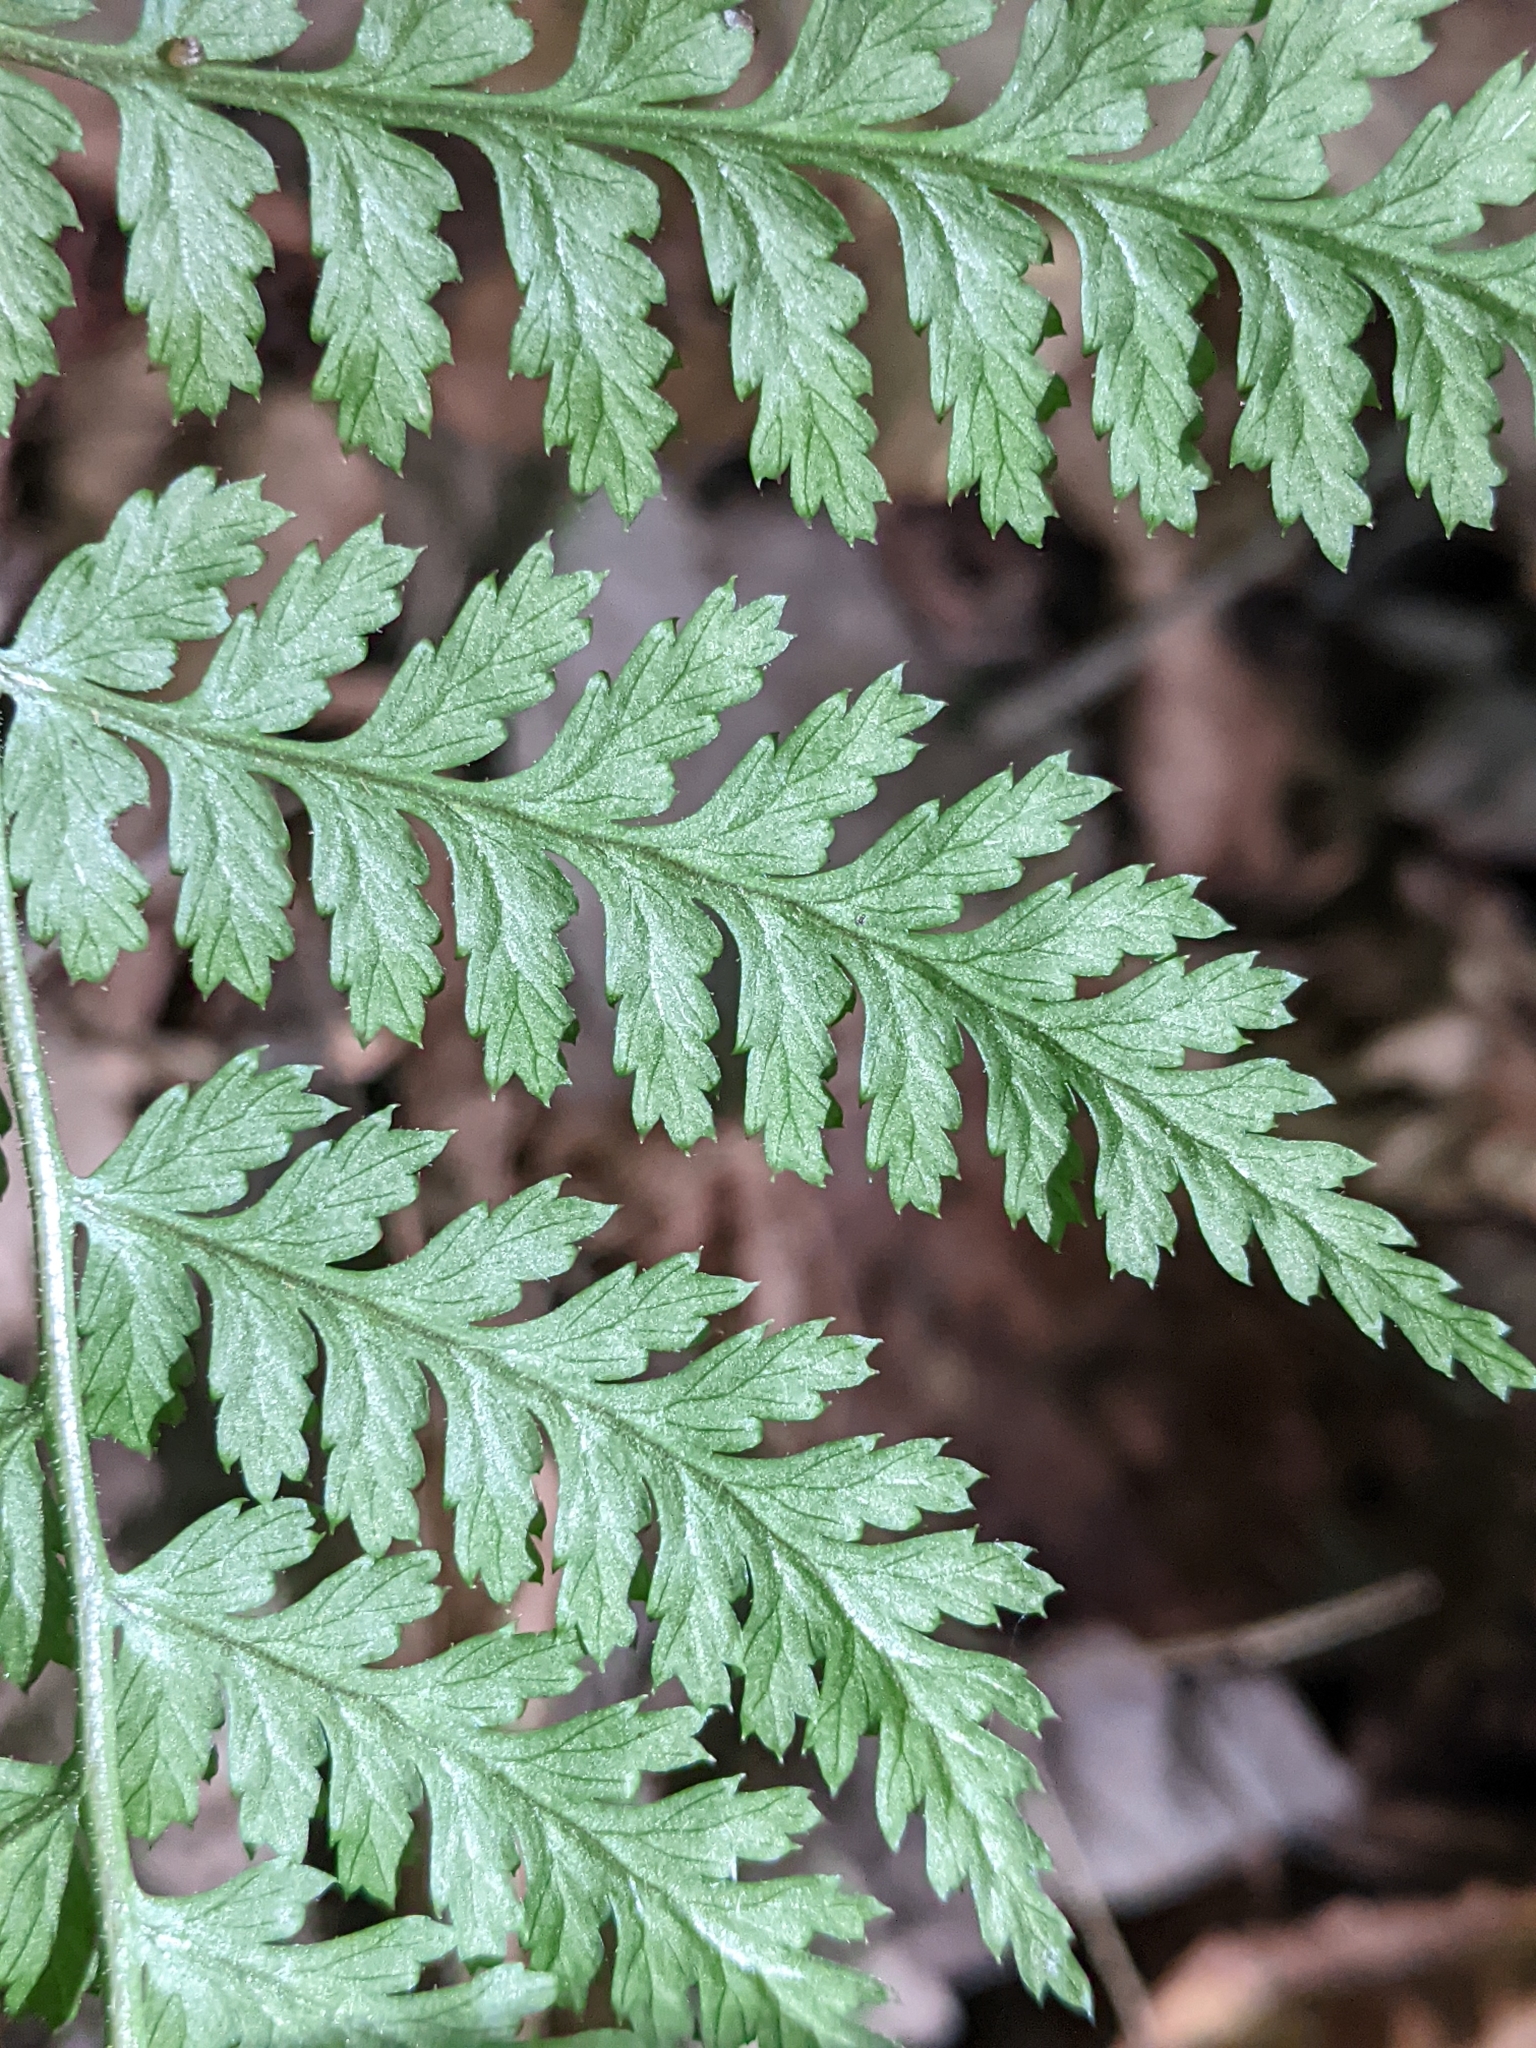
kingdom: Plantae
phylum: Tracheophyta
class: Polypodiopsida
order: Polypodiales
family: Dryopteridaceae
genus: Dryopteris
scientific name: Dryopteris intermedia
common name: Evergreen wood fern
